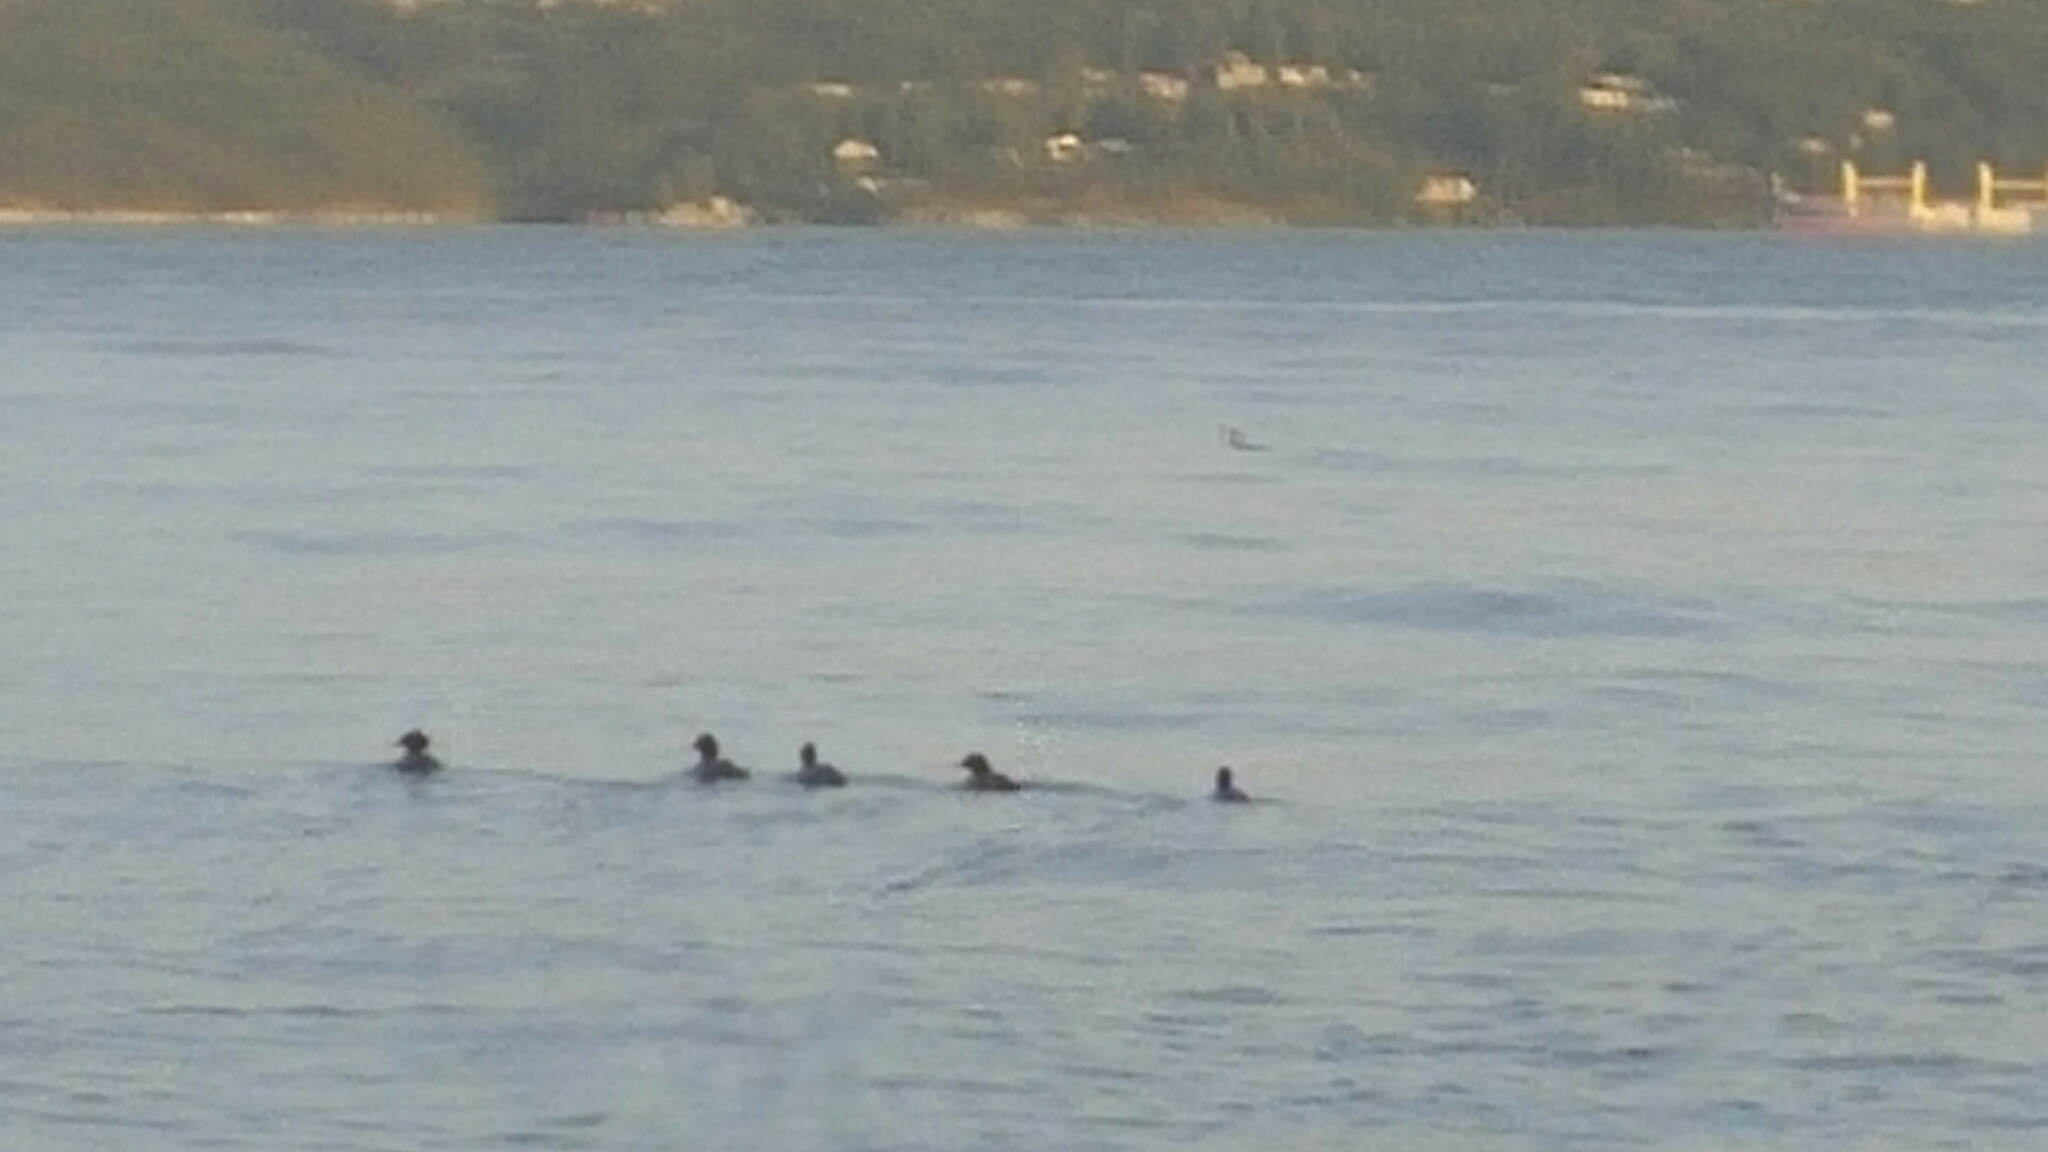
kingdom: Animalia
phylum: Chordata
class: Aves
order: Anseriformes
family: Anatidae
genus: Mergus
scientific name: Mergus merganser
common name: Common merganser
